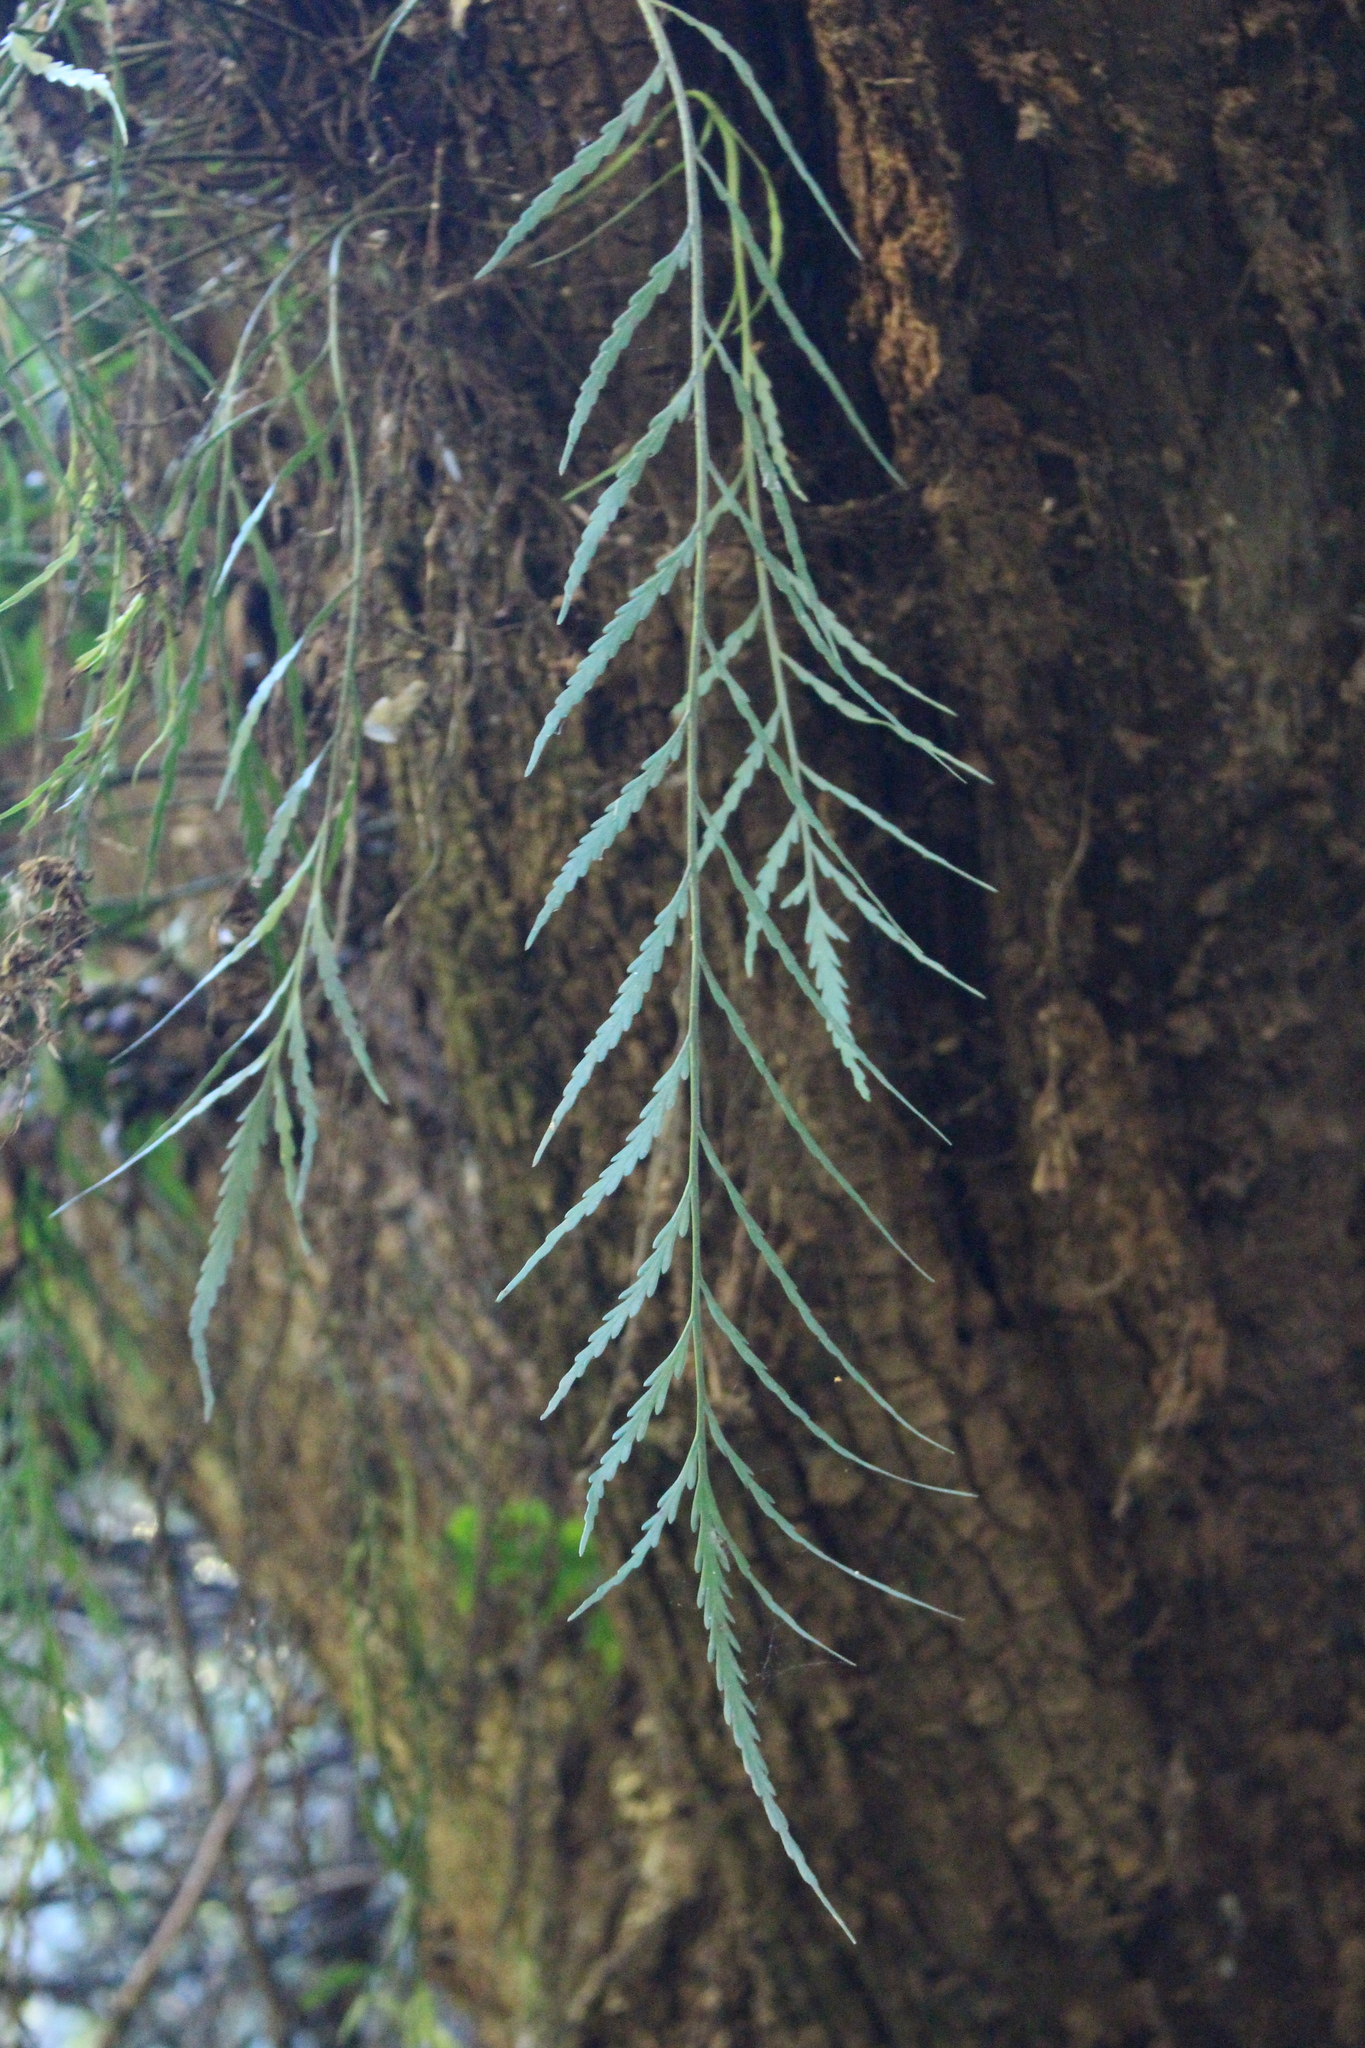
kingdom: Plantae
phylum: Tracheophyta
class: Polypodiopsida
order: Polypodiales
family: Aspleniaceae
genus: Asplenium
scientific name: Asplenium flaccidum
